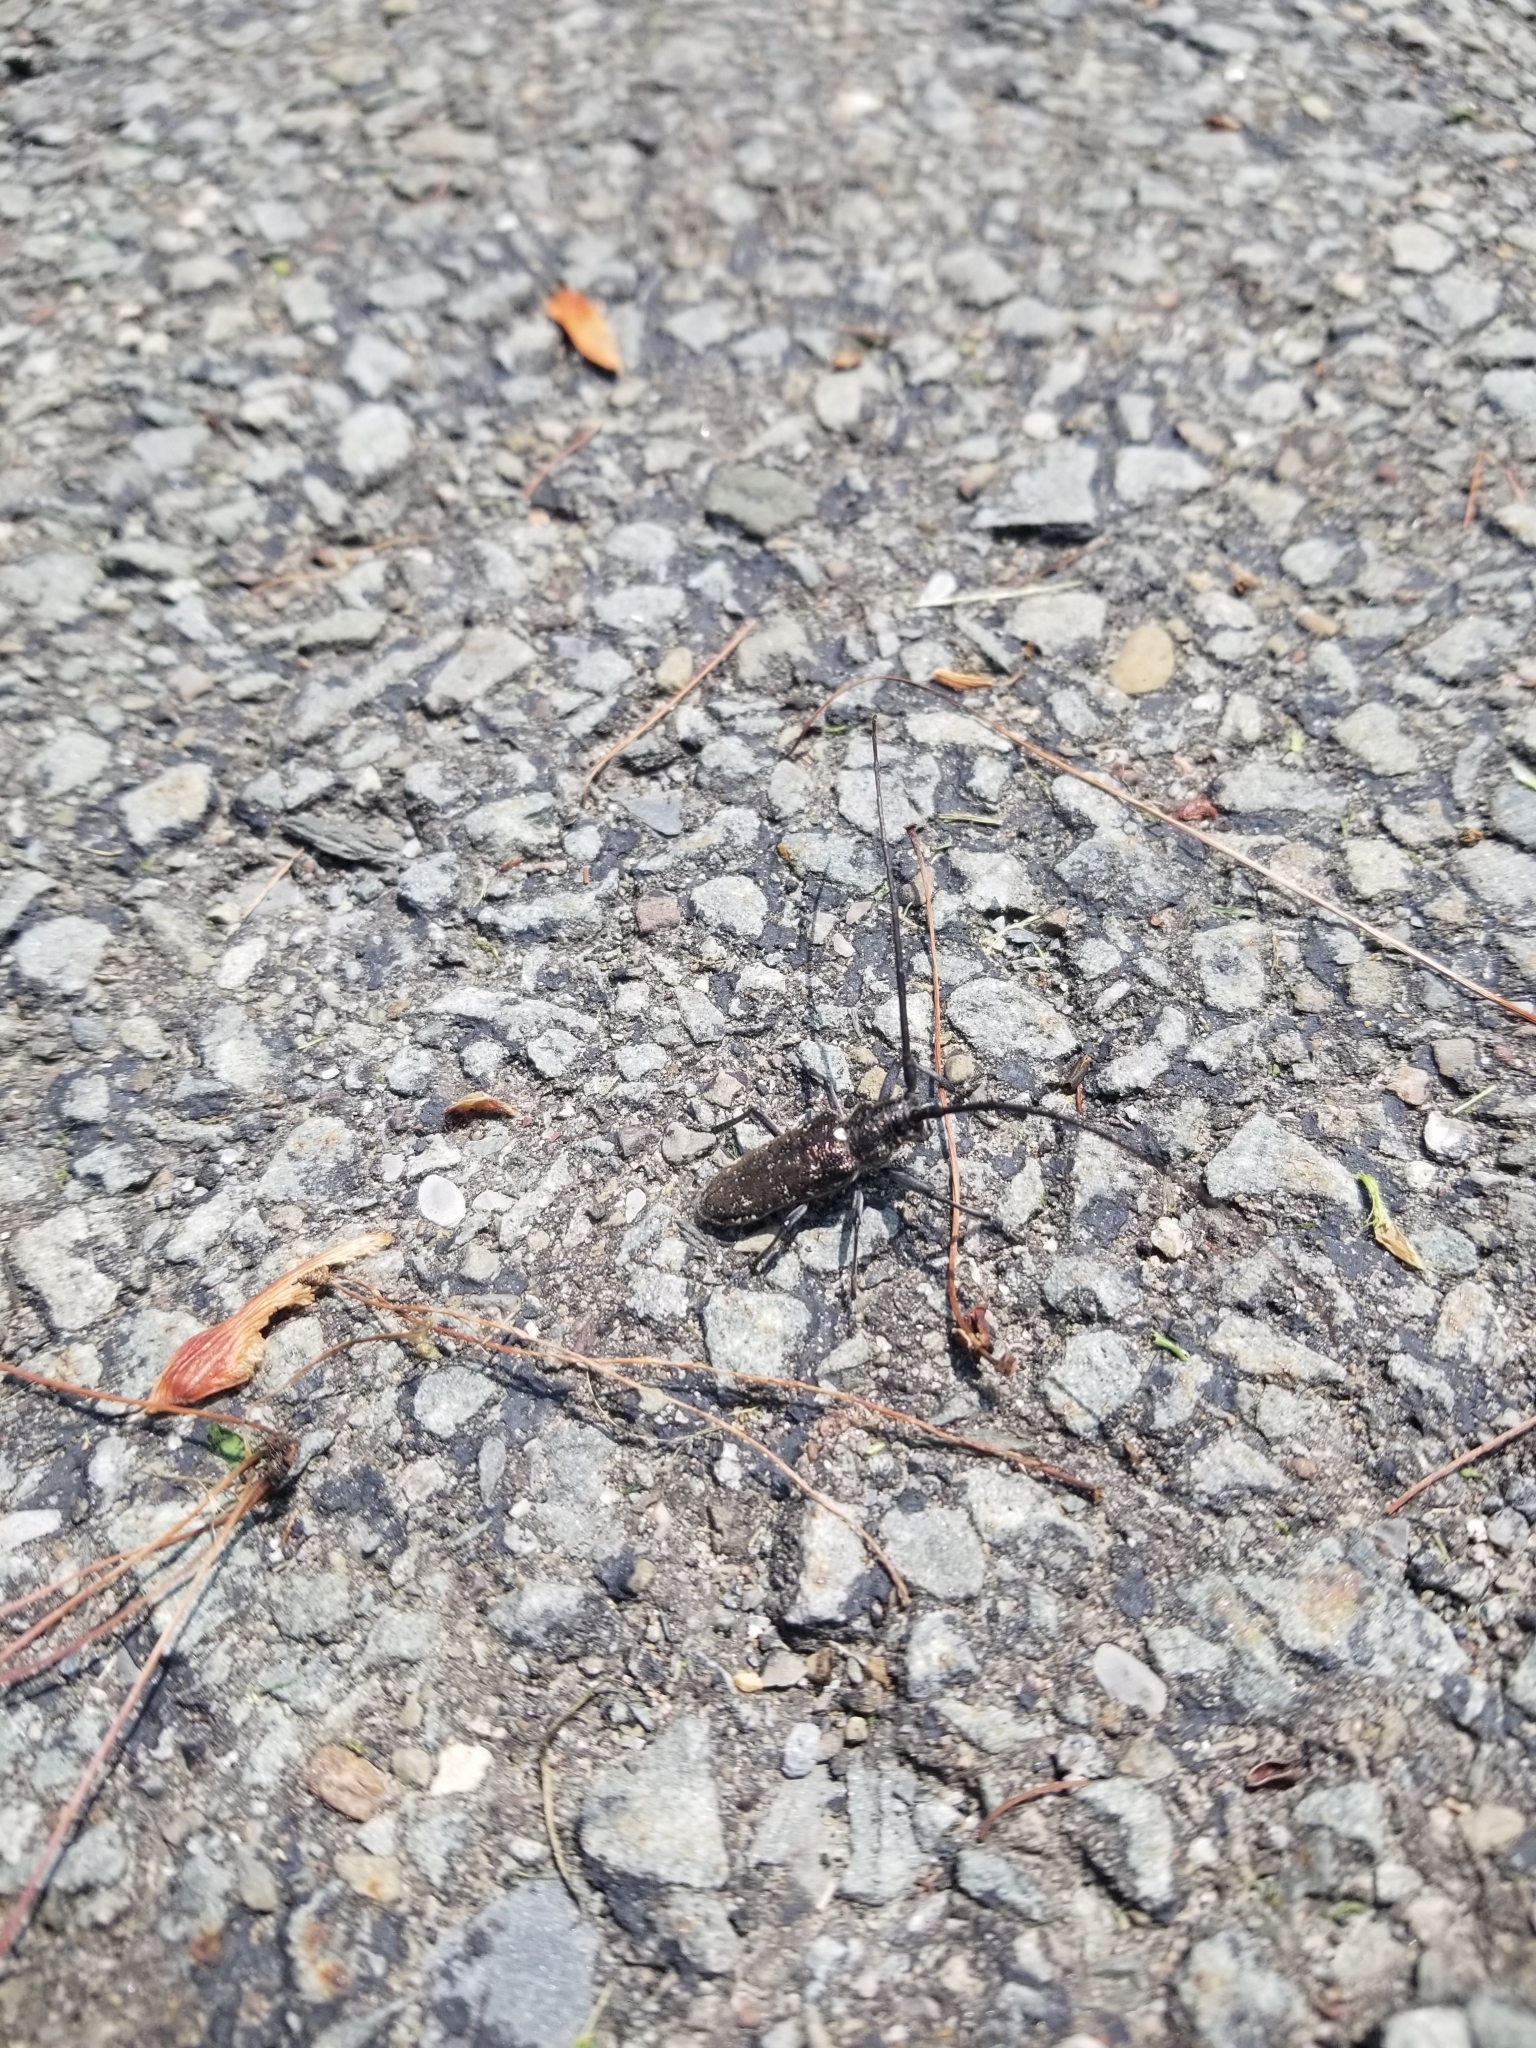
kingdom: Animalia
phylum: Arthropoda
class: Insecta
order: Coleoptera
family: Cerambycidae
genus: Monochamus
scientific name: Monochamus scutellatus
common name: White-spotted sawyer beetle
